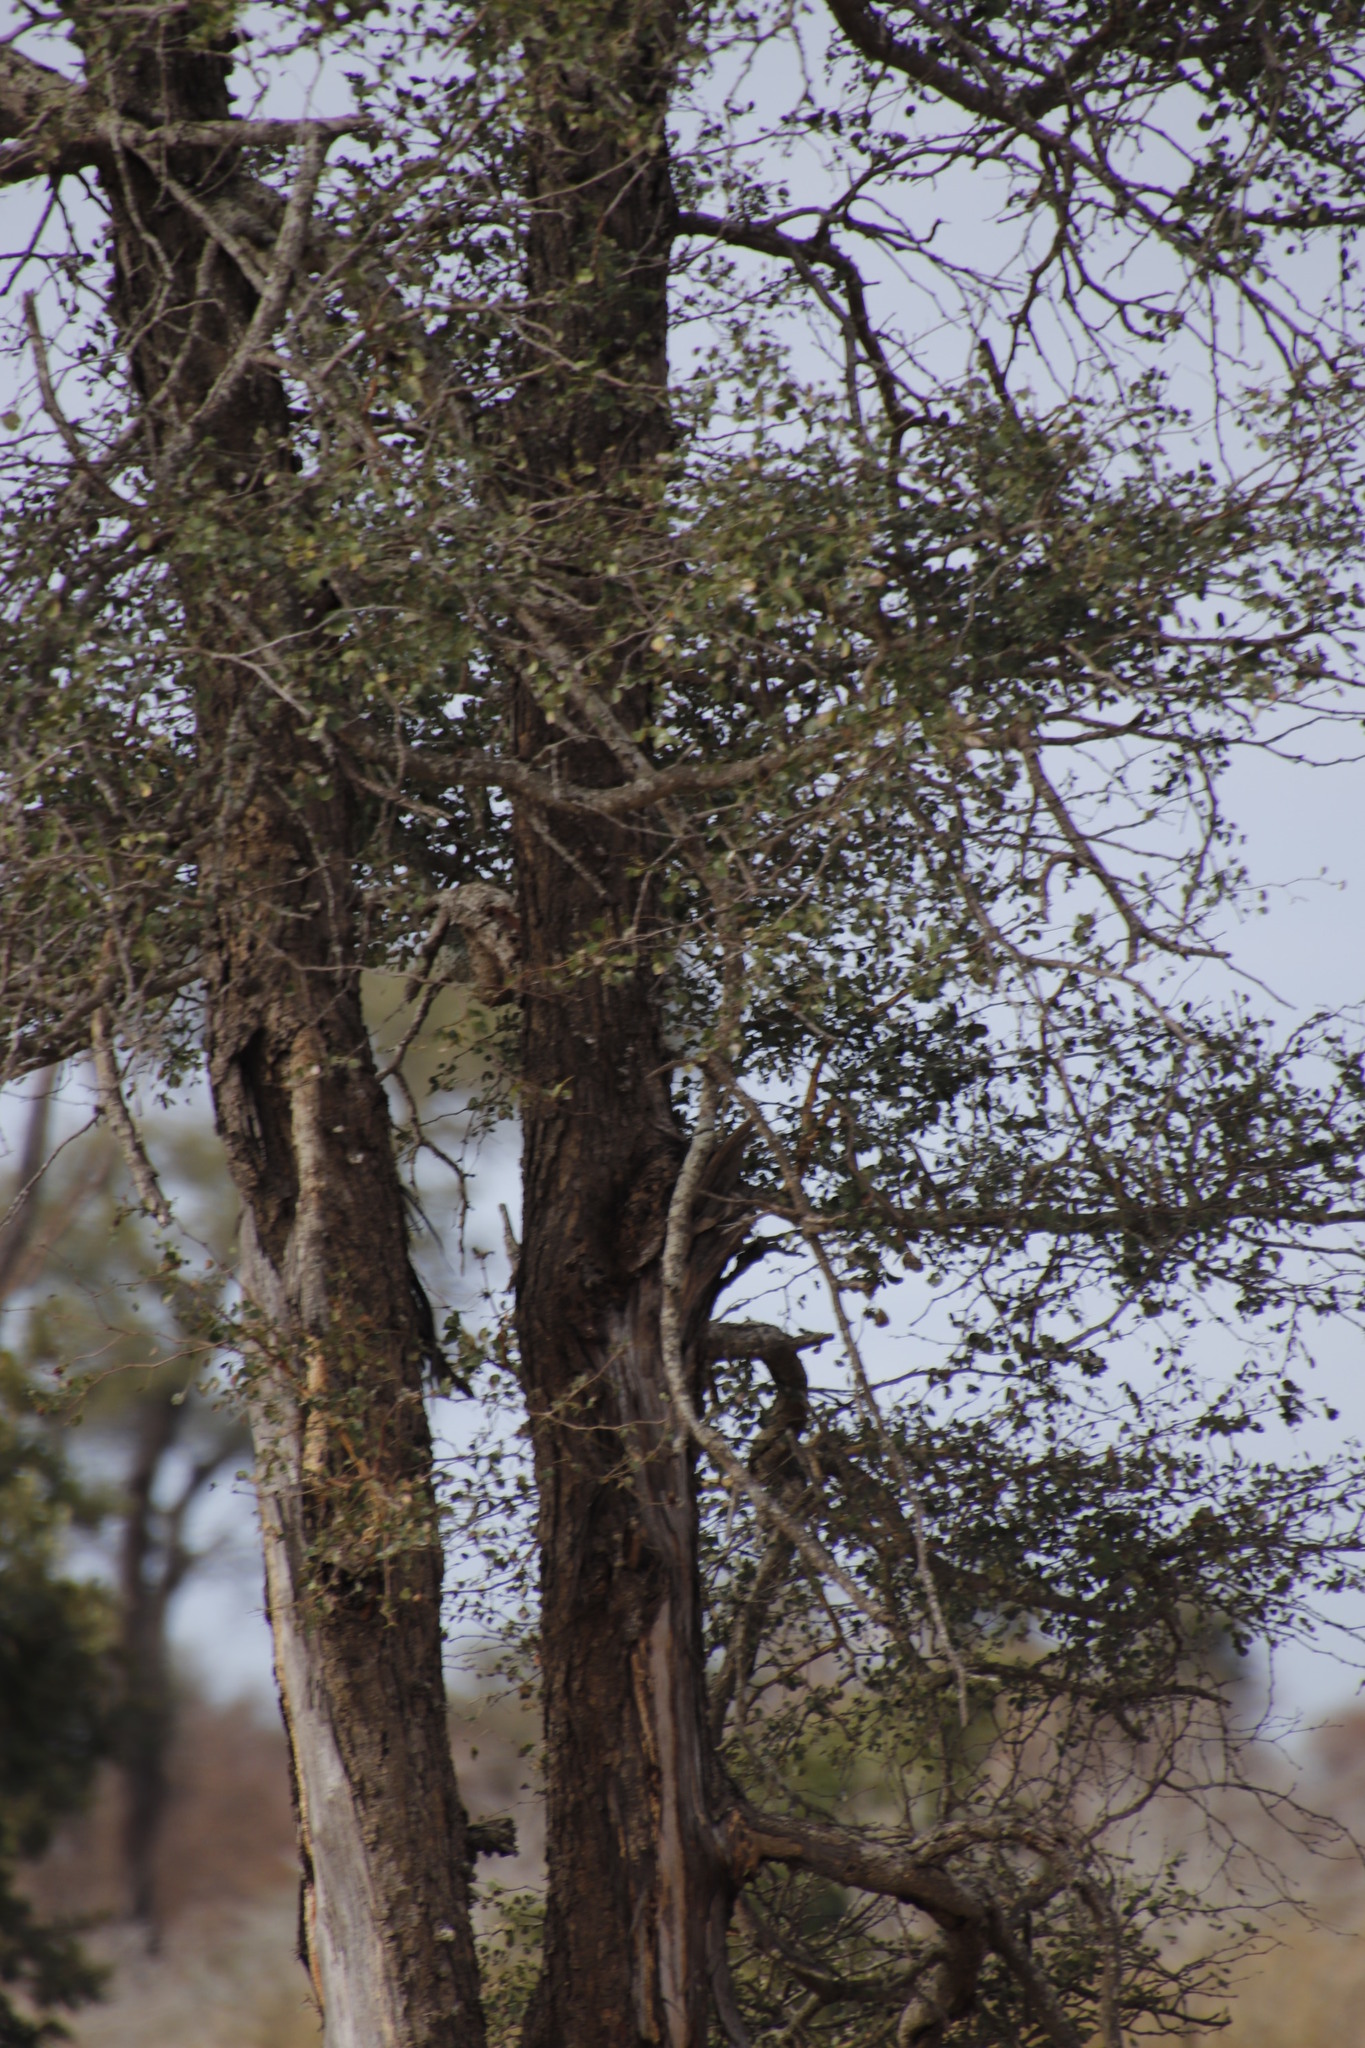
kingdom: Plantae
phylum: Tracheophyta
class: Magnoliopsida
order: Fabales
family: Fabaceae
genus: Senegalia
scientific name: Senegalia nigrescens
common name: Knobthorn
